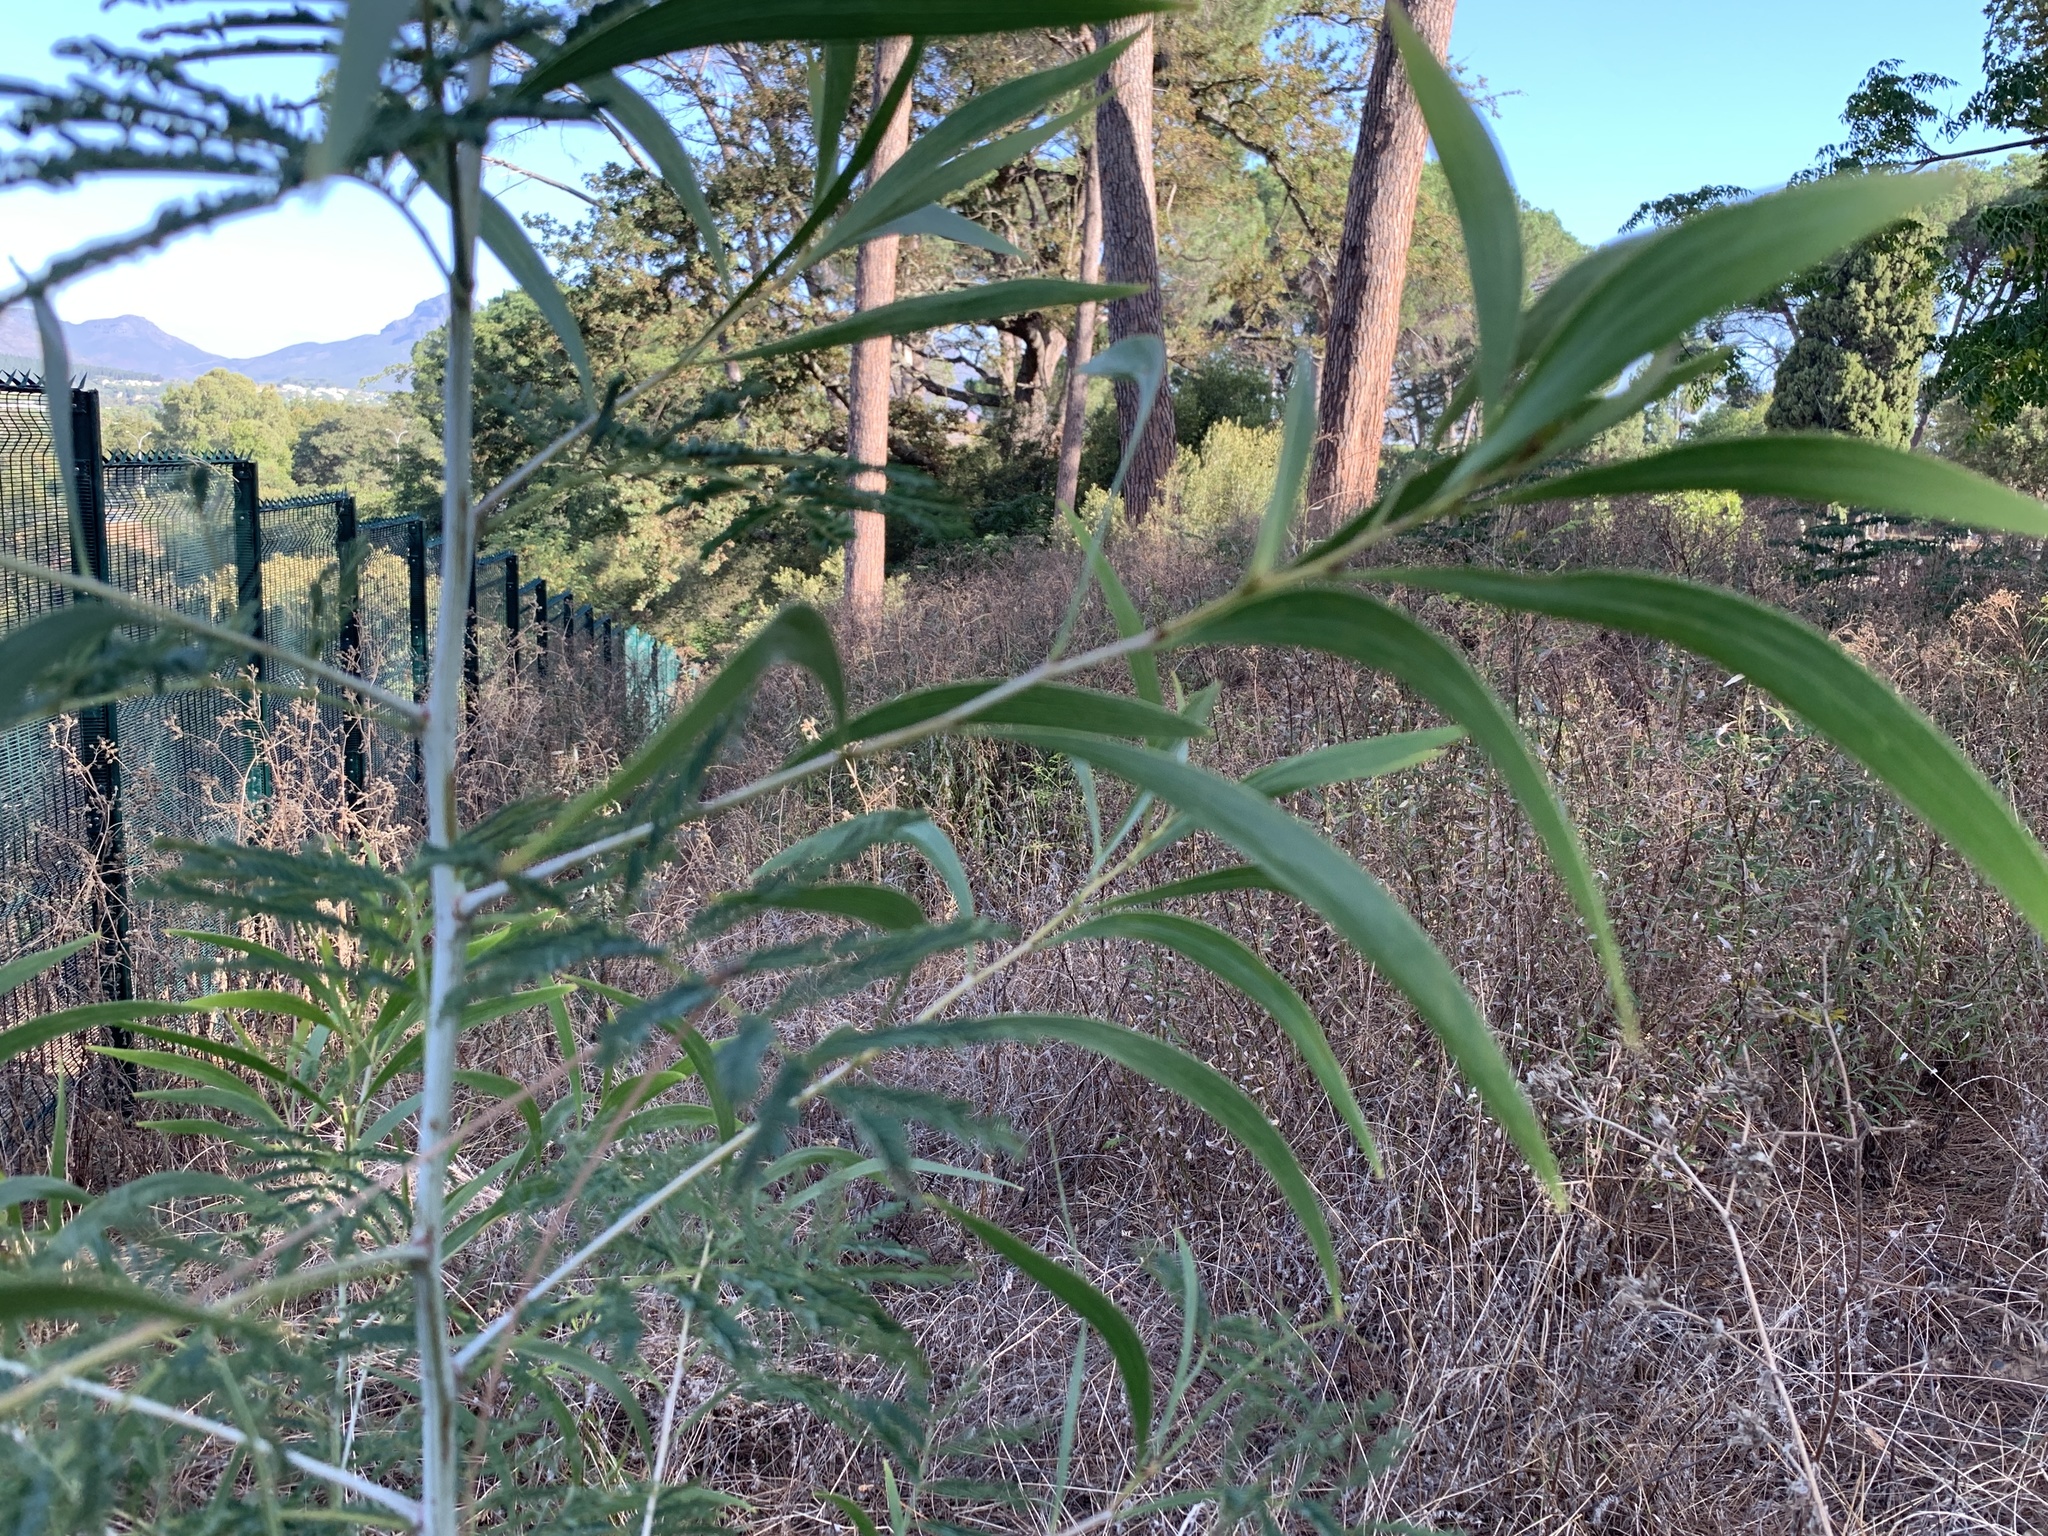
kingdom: Plantae
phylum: Tracheophyta
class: Magnoliopsida
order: Fabales
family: Fabaceae
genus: Acacia
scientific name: Acacia implexa
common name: Black wattle
